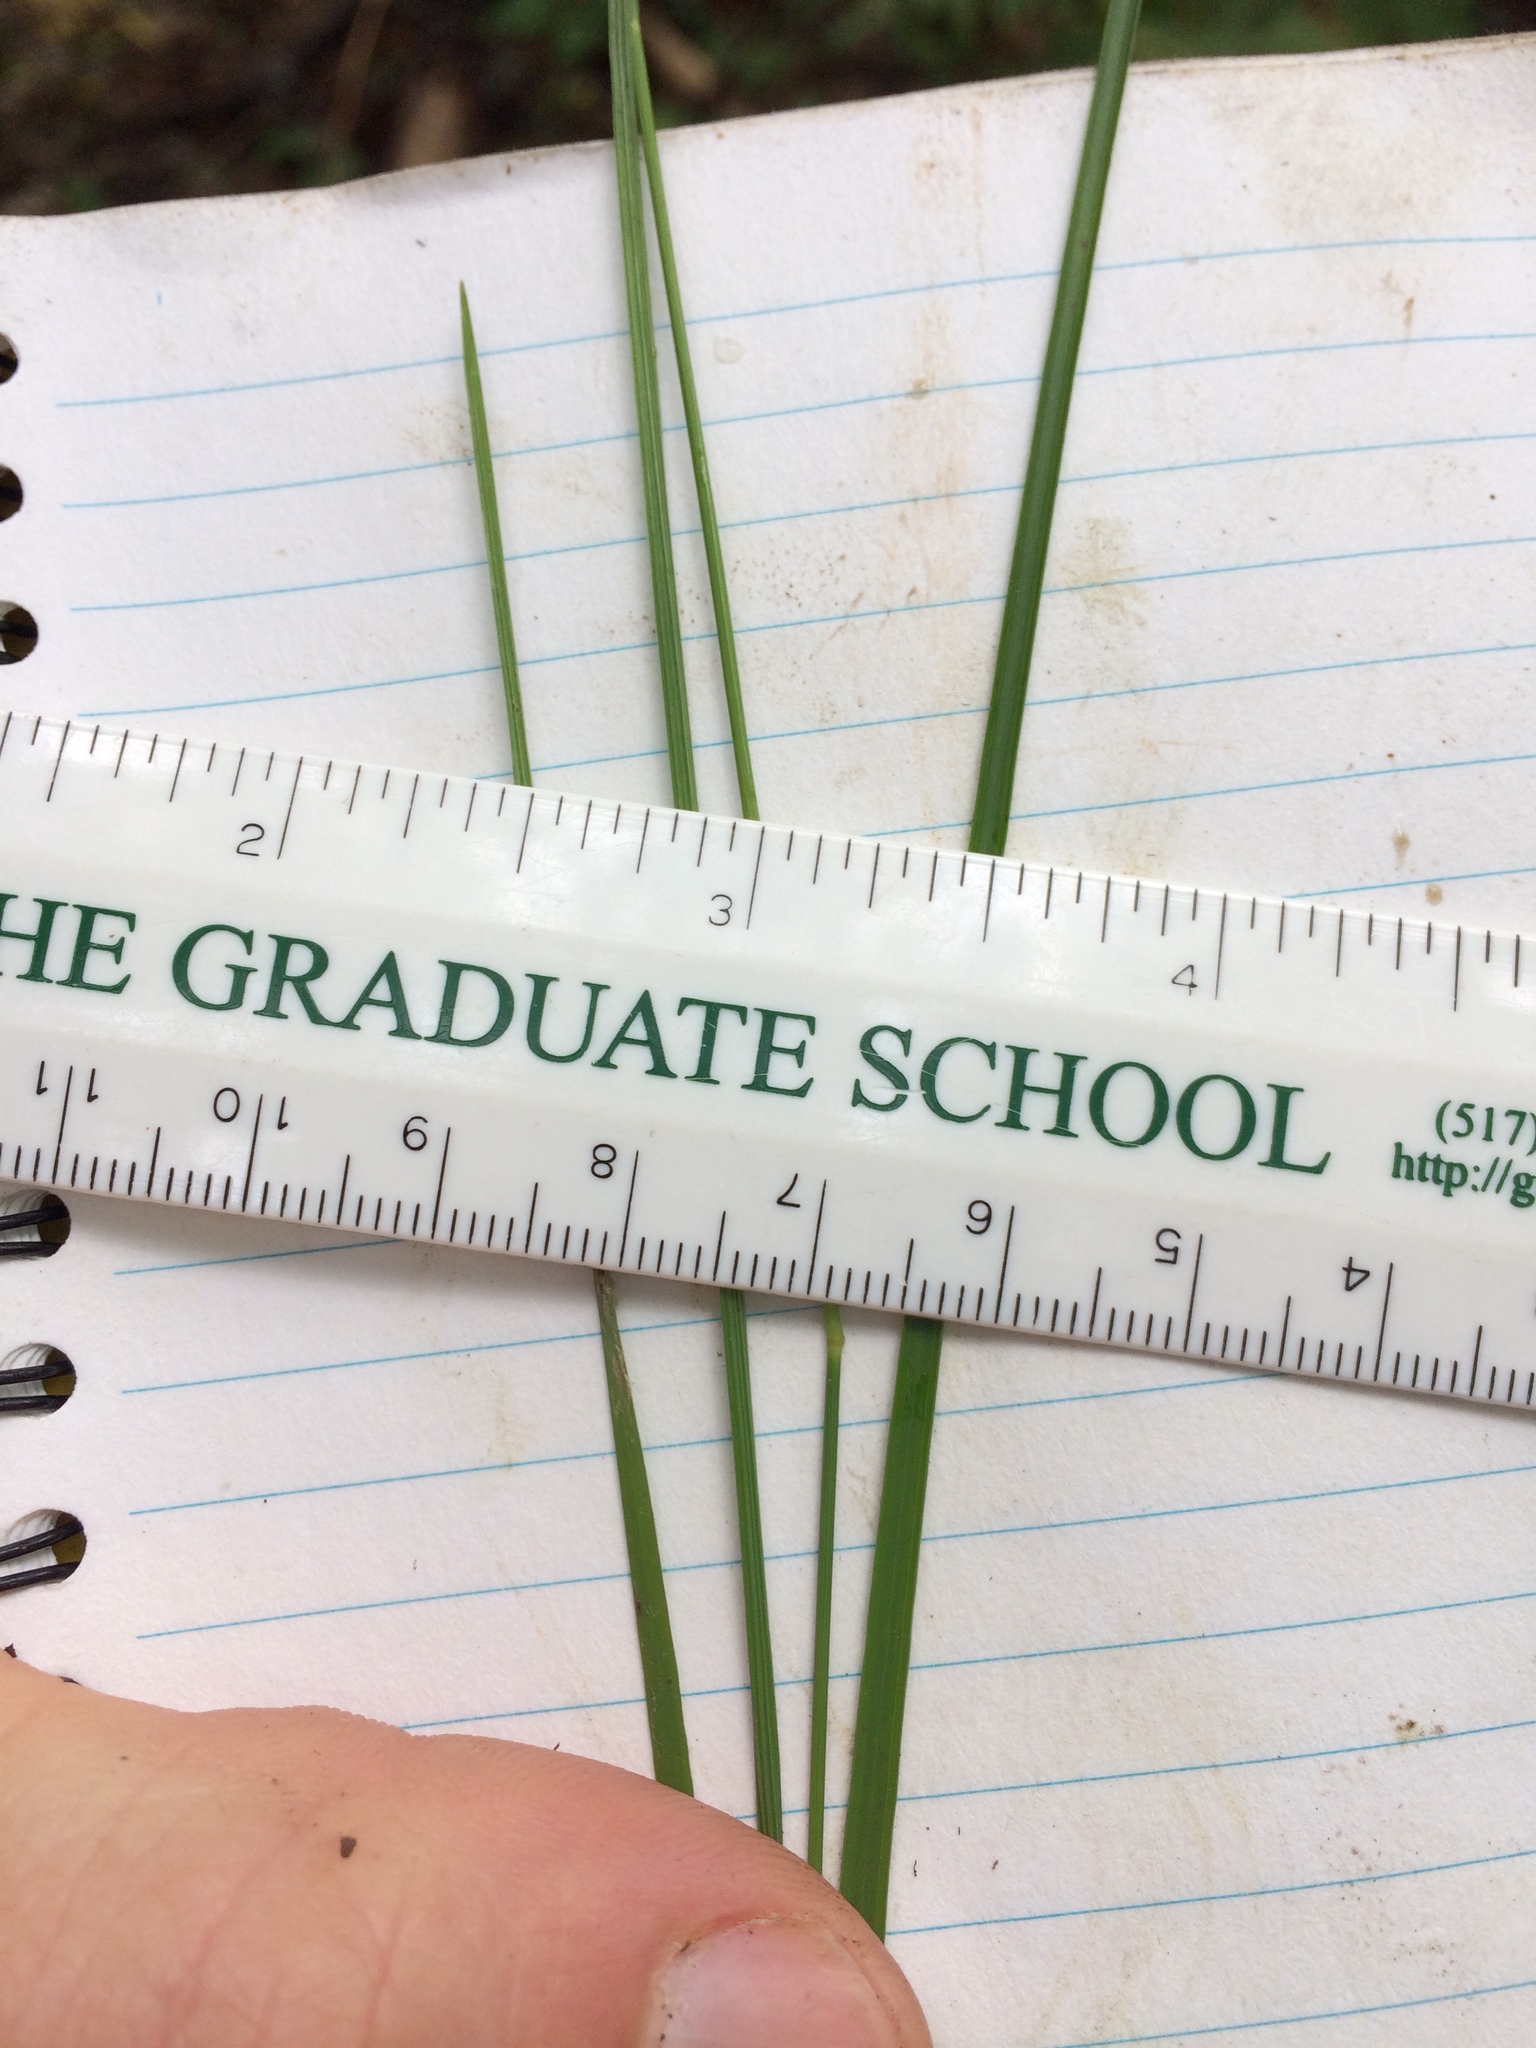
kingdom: Plantae
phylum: Tracheophyta
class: Liliopsida
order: Poales
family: Poaceae
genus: Piptatheropsis
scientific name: Piptatheropsis pungens
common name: Northern ricegrass
